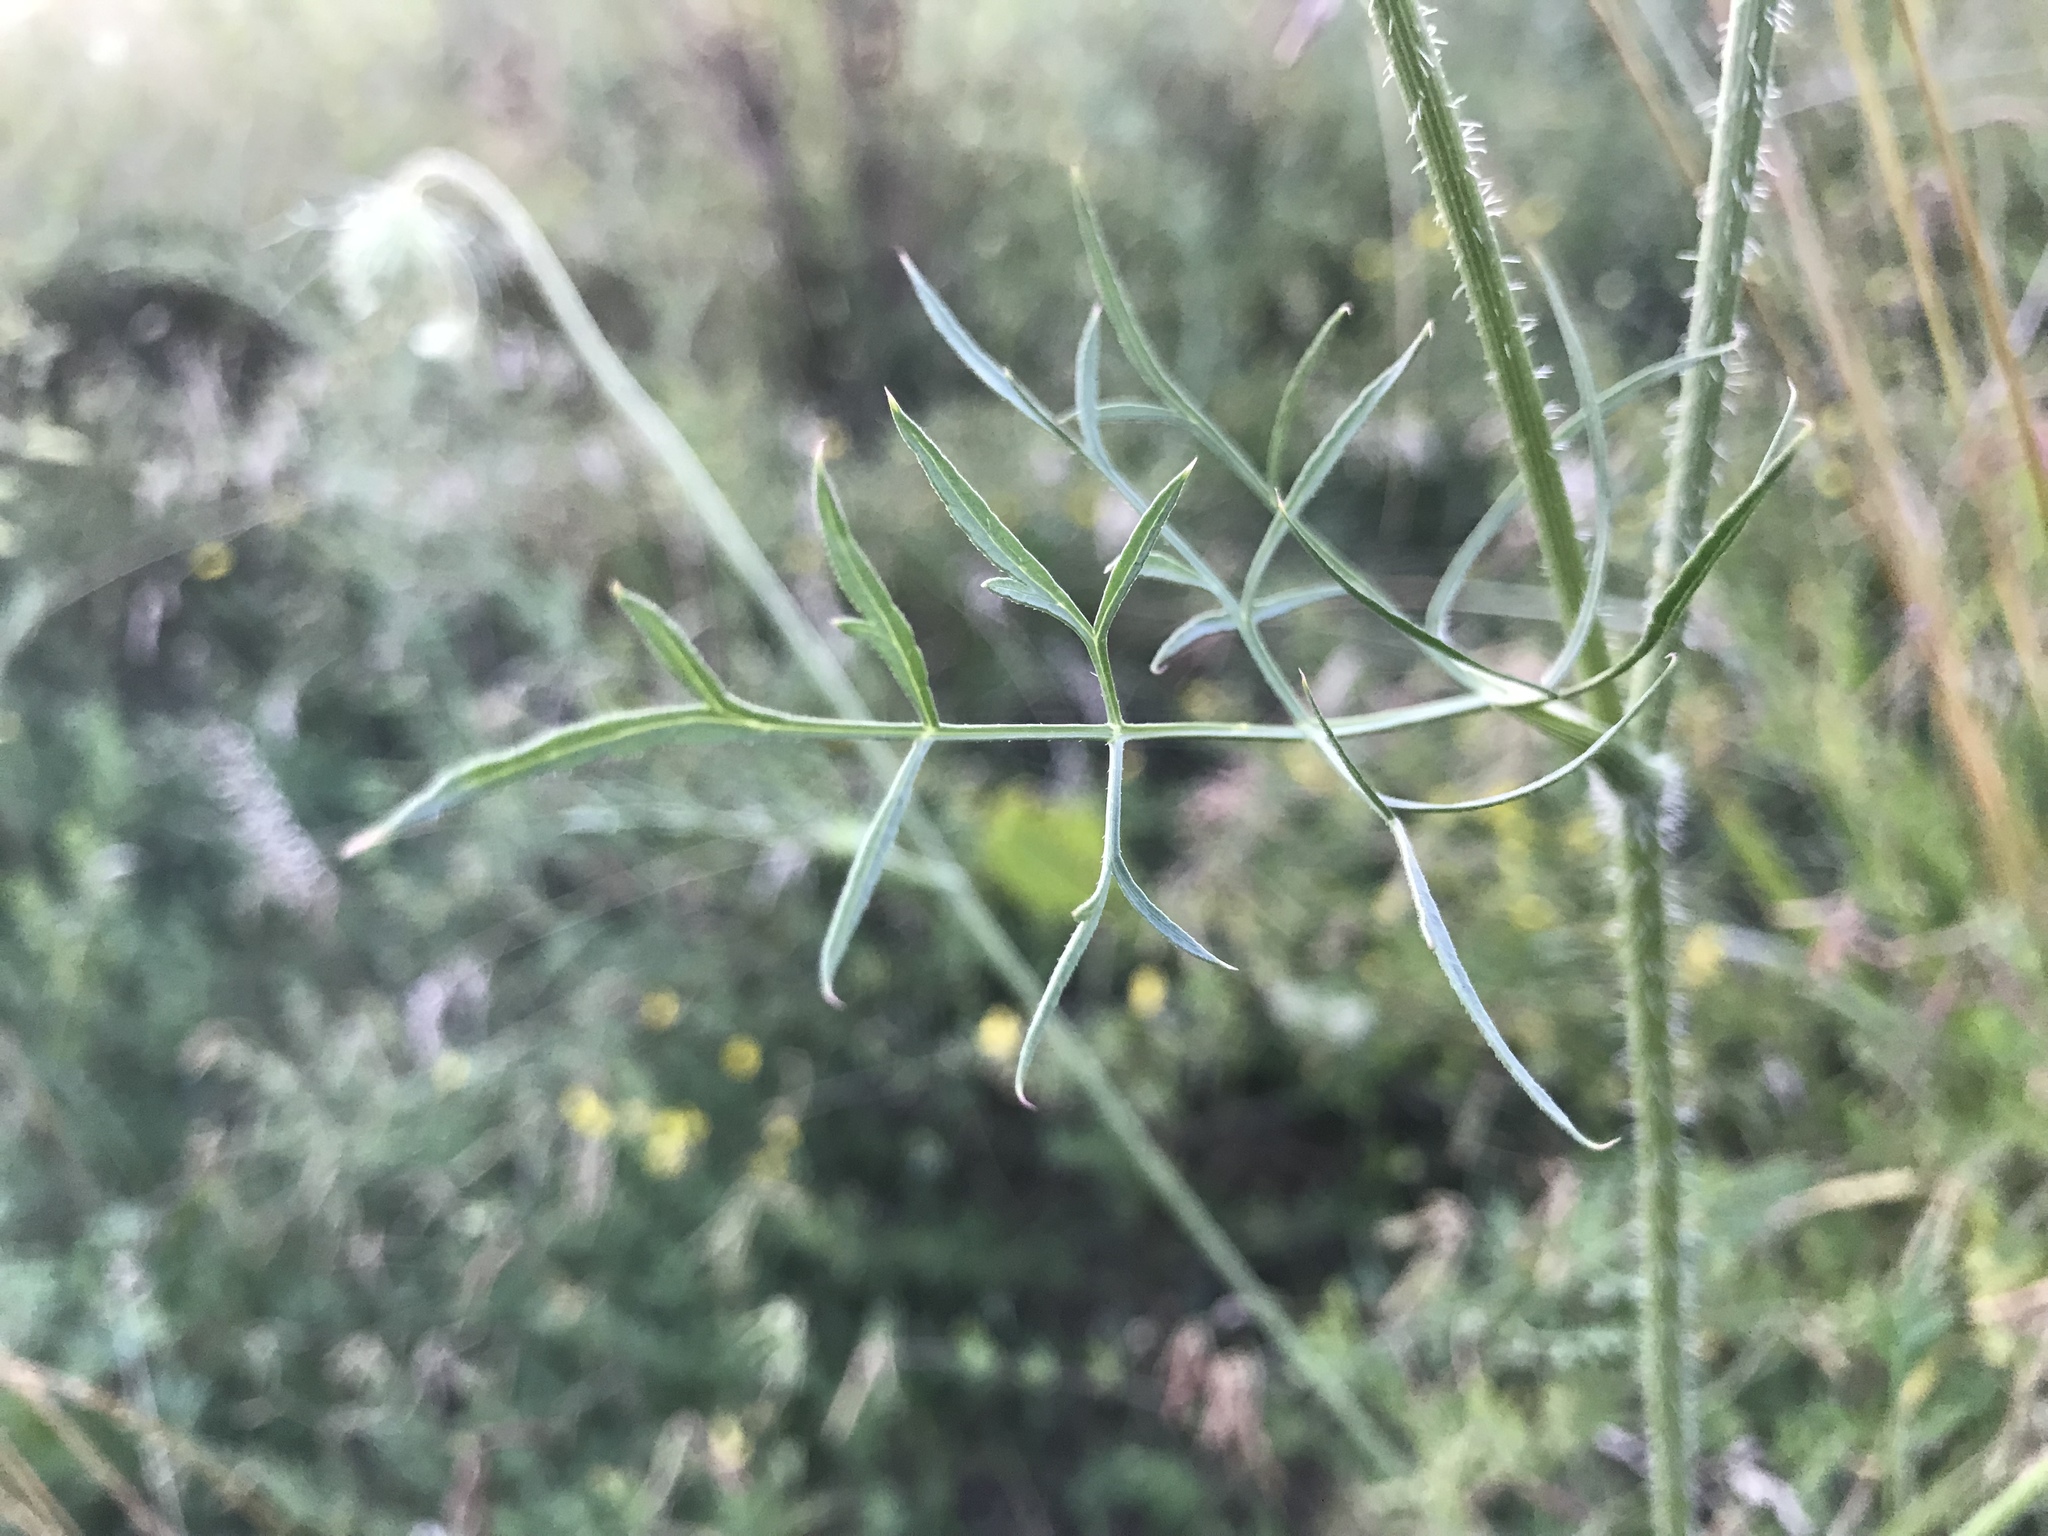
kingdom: Plantae
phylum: Tracheophyta
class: Magnoliopsida
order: Apiales
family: Apiaceae
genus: Daucus
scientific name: Daucus carota
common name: Wild carrot
